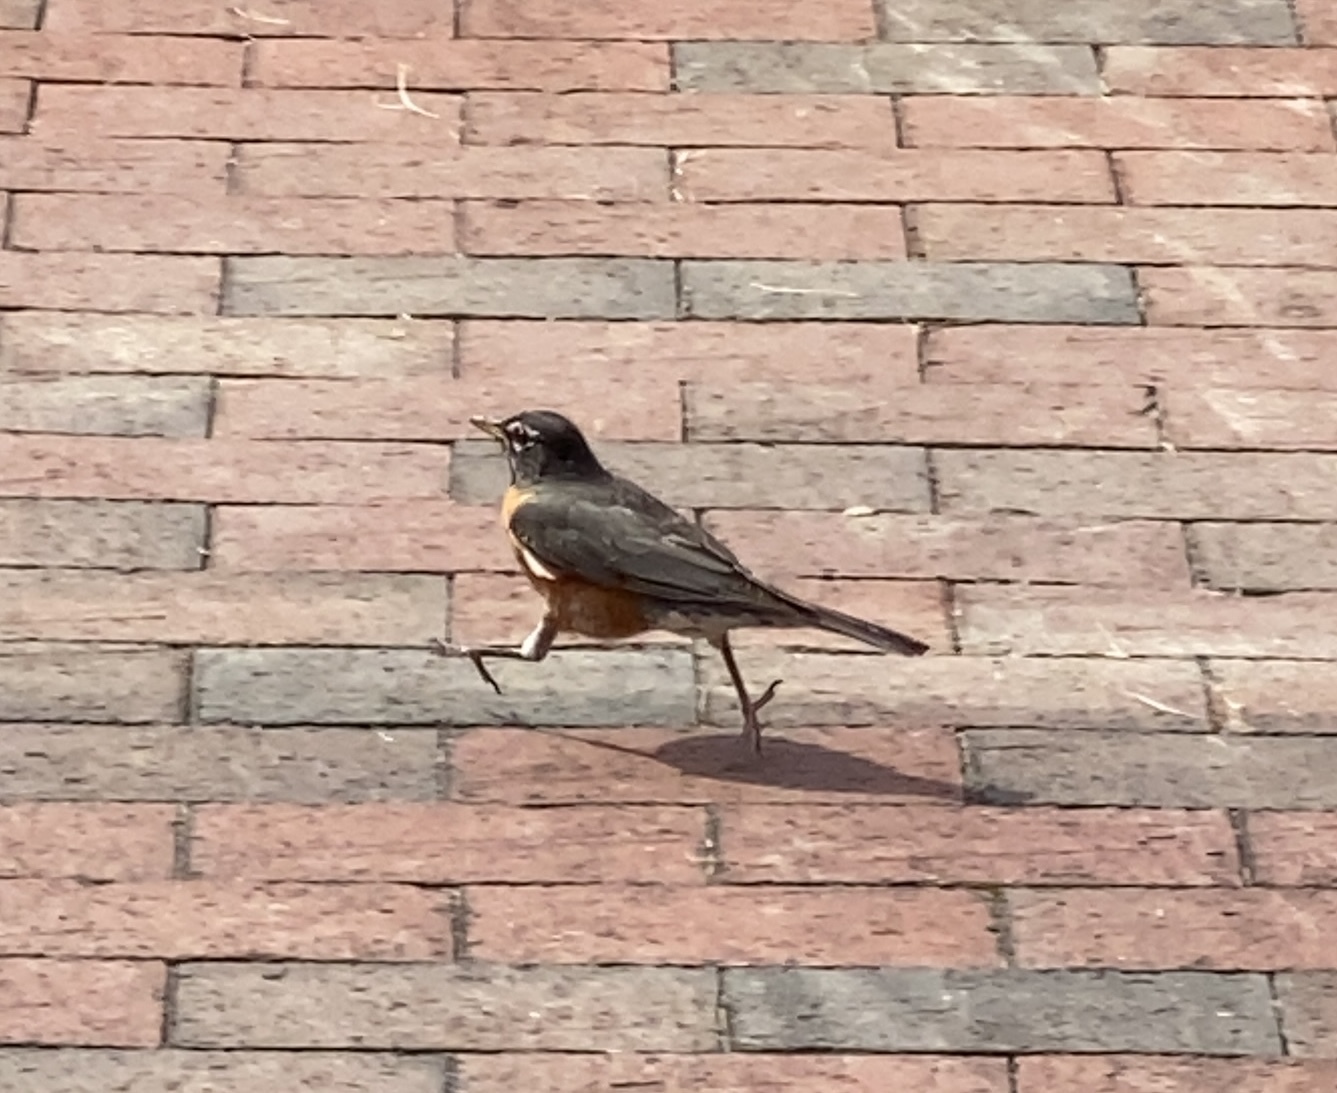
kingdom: Animalia
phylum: Chordata
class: Aves
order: Passeriformes
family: Turdidae
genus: Turdus
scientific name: Turdus migratorius
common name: American robin
